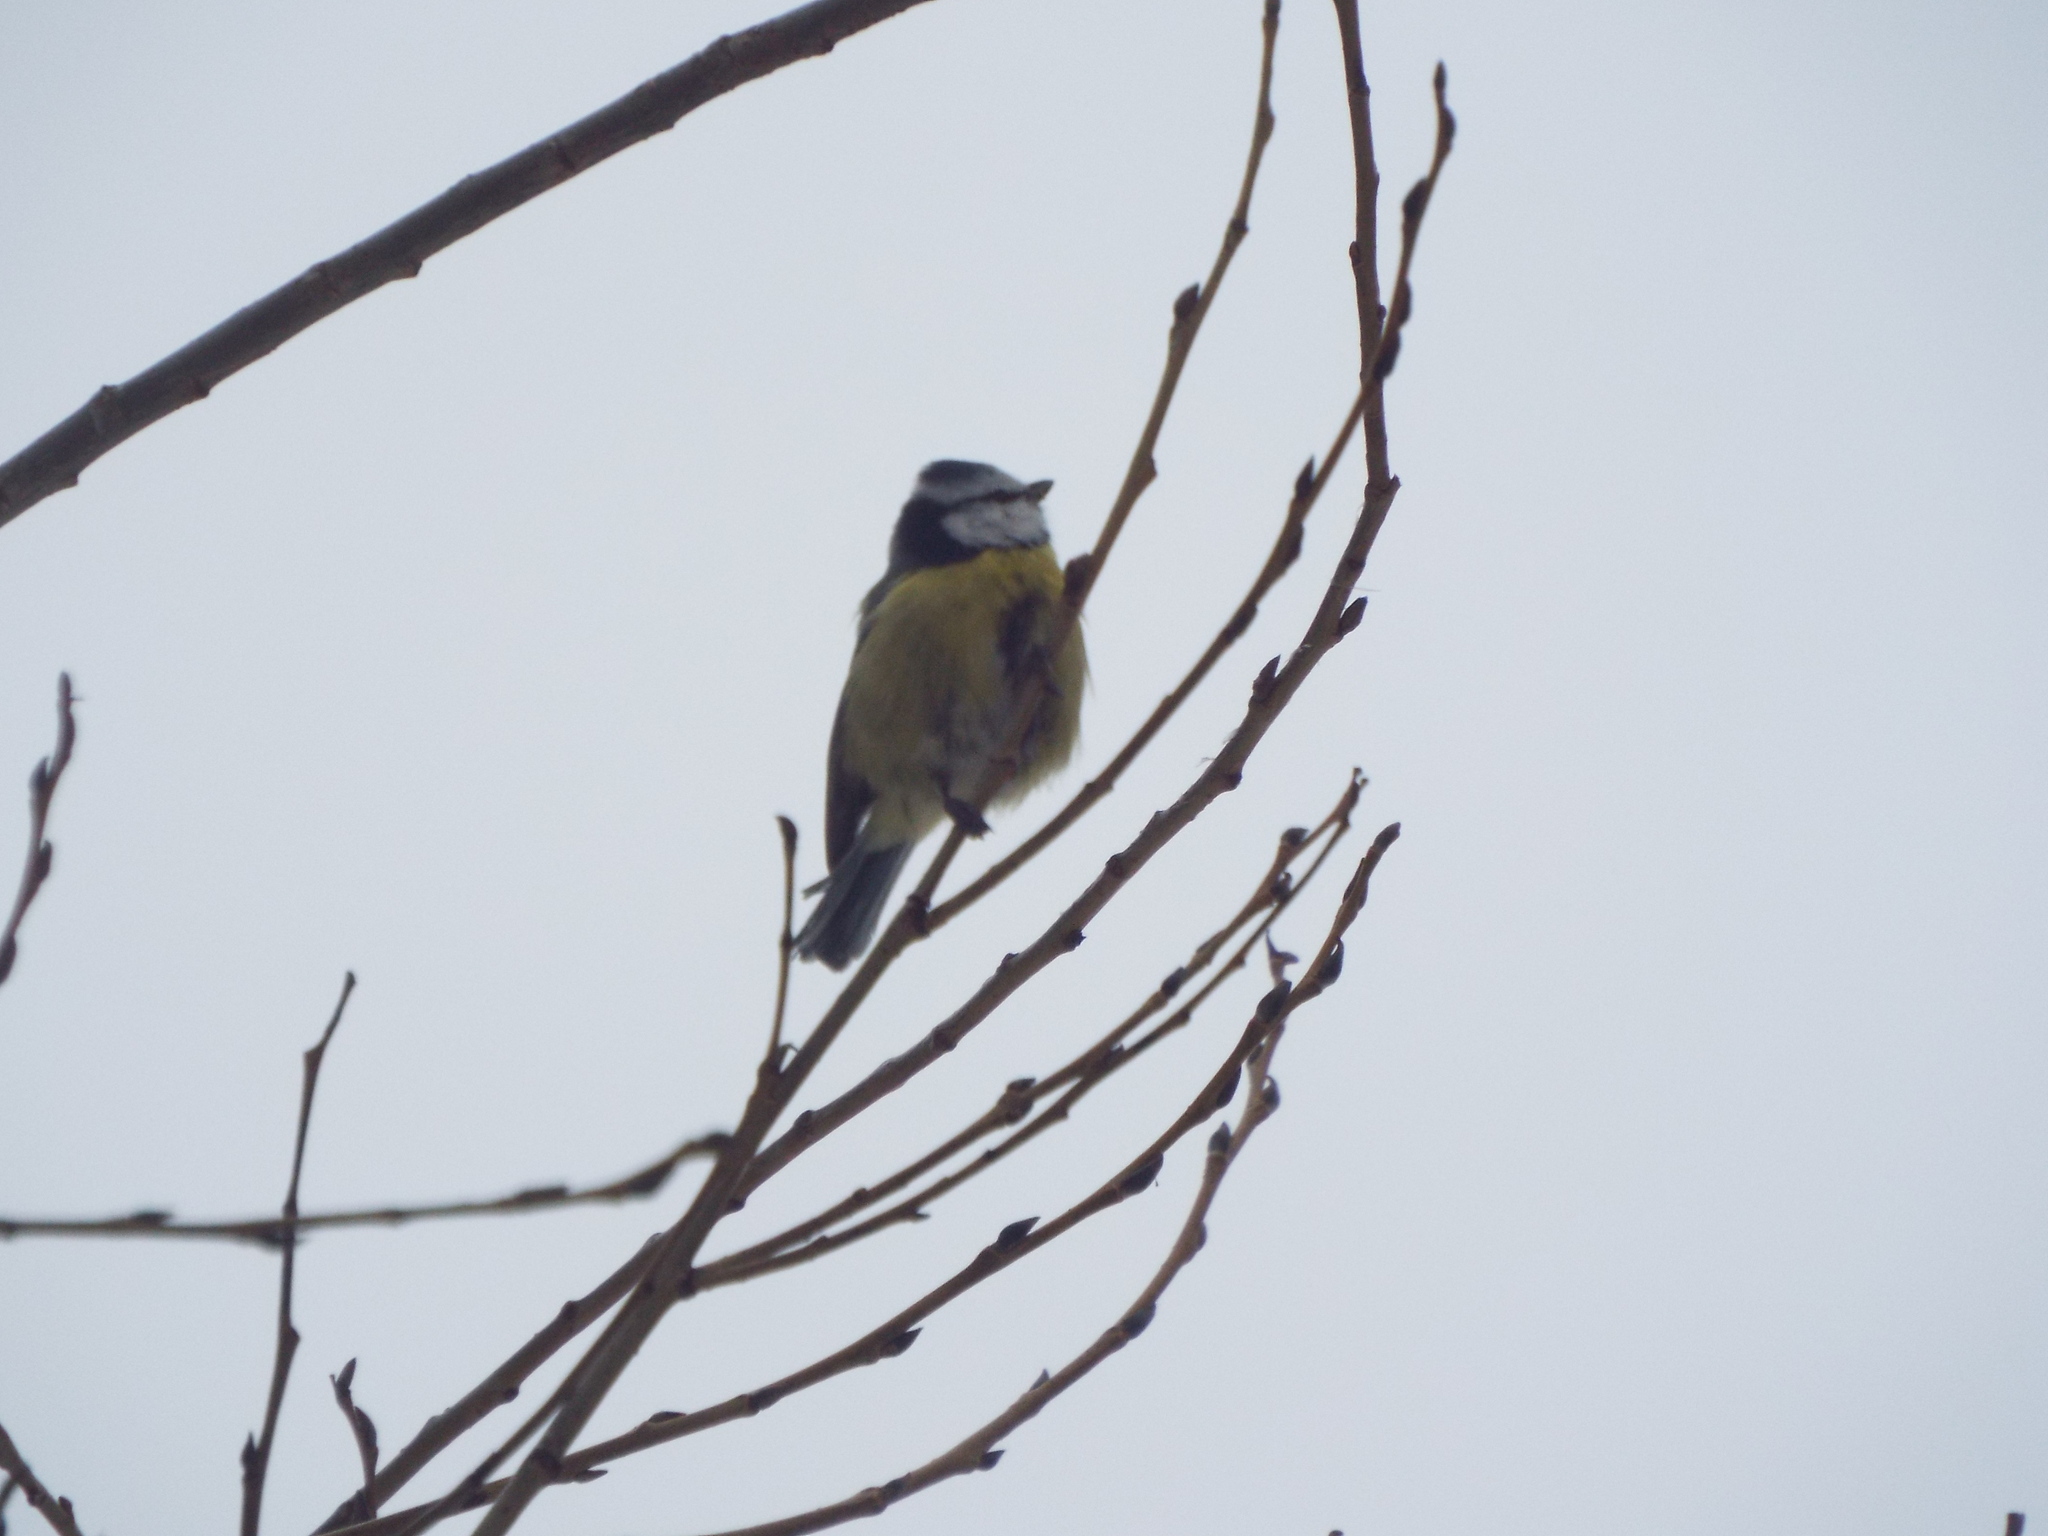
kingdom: Animalia
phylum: Chordata
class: Aves
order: Passeriformes
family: Paridae
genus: Cyanistes
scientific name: Cyanistes caeruleus
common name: Eurasian blue tit
